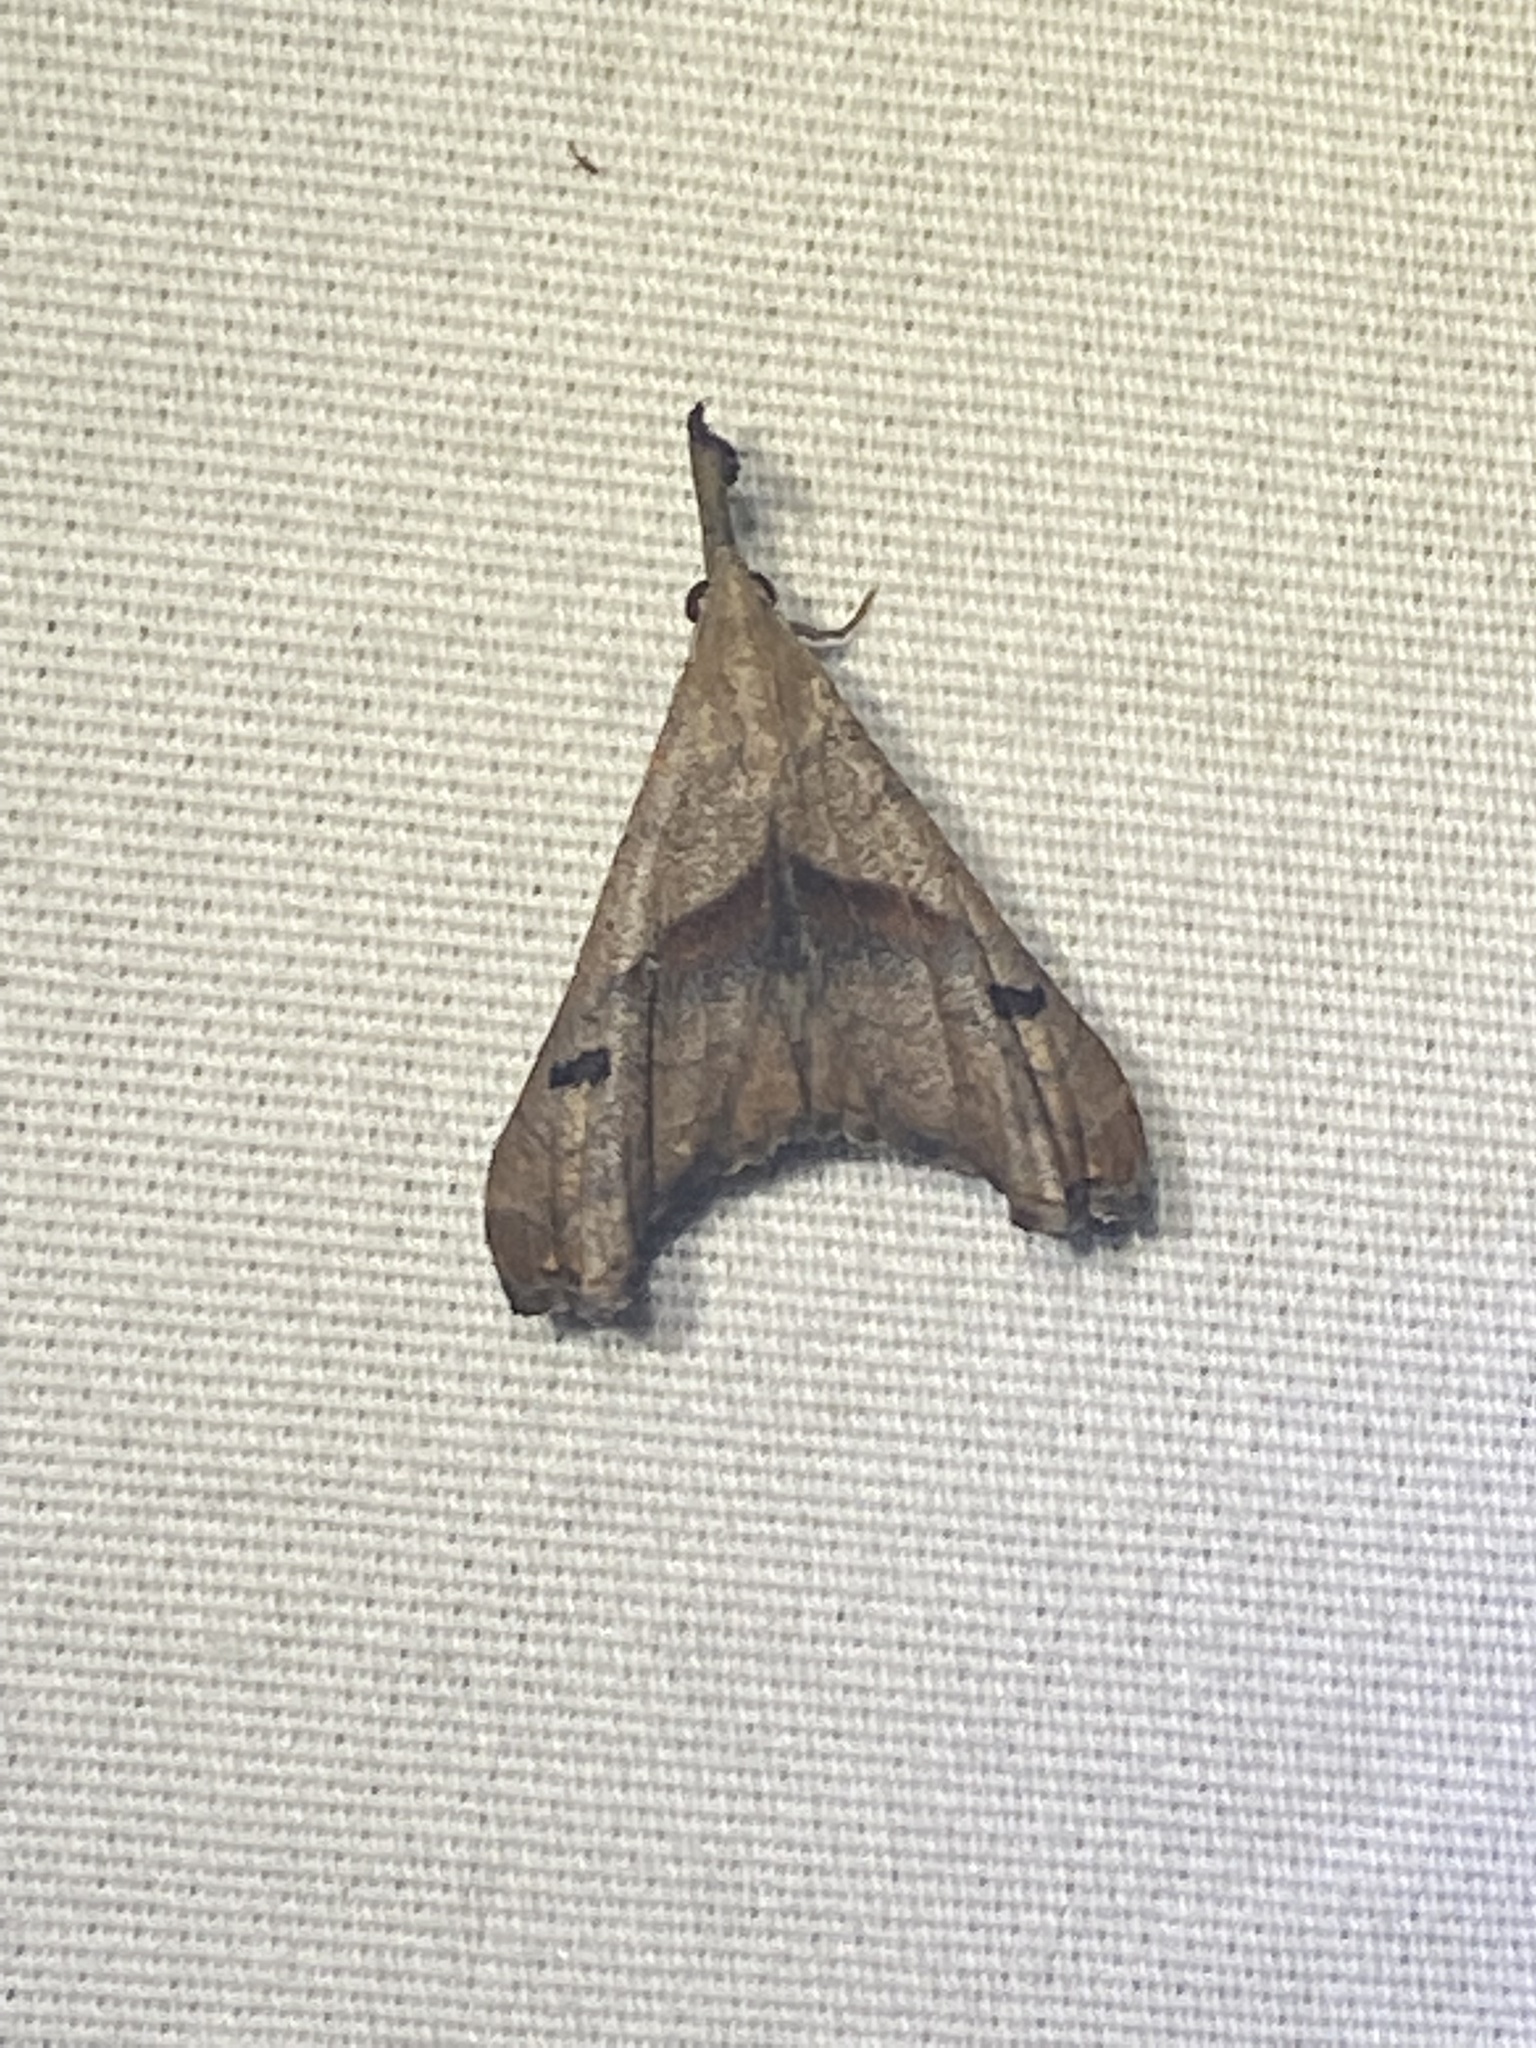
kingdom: Animalia
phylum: Arthropoda
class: Insecta
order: Lepidoptera
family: Erebidae
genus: Palthis
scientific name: Palthis angulalis
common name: Dark-spotted palthis moth
